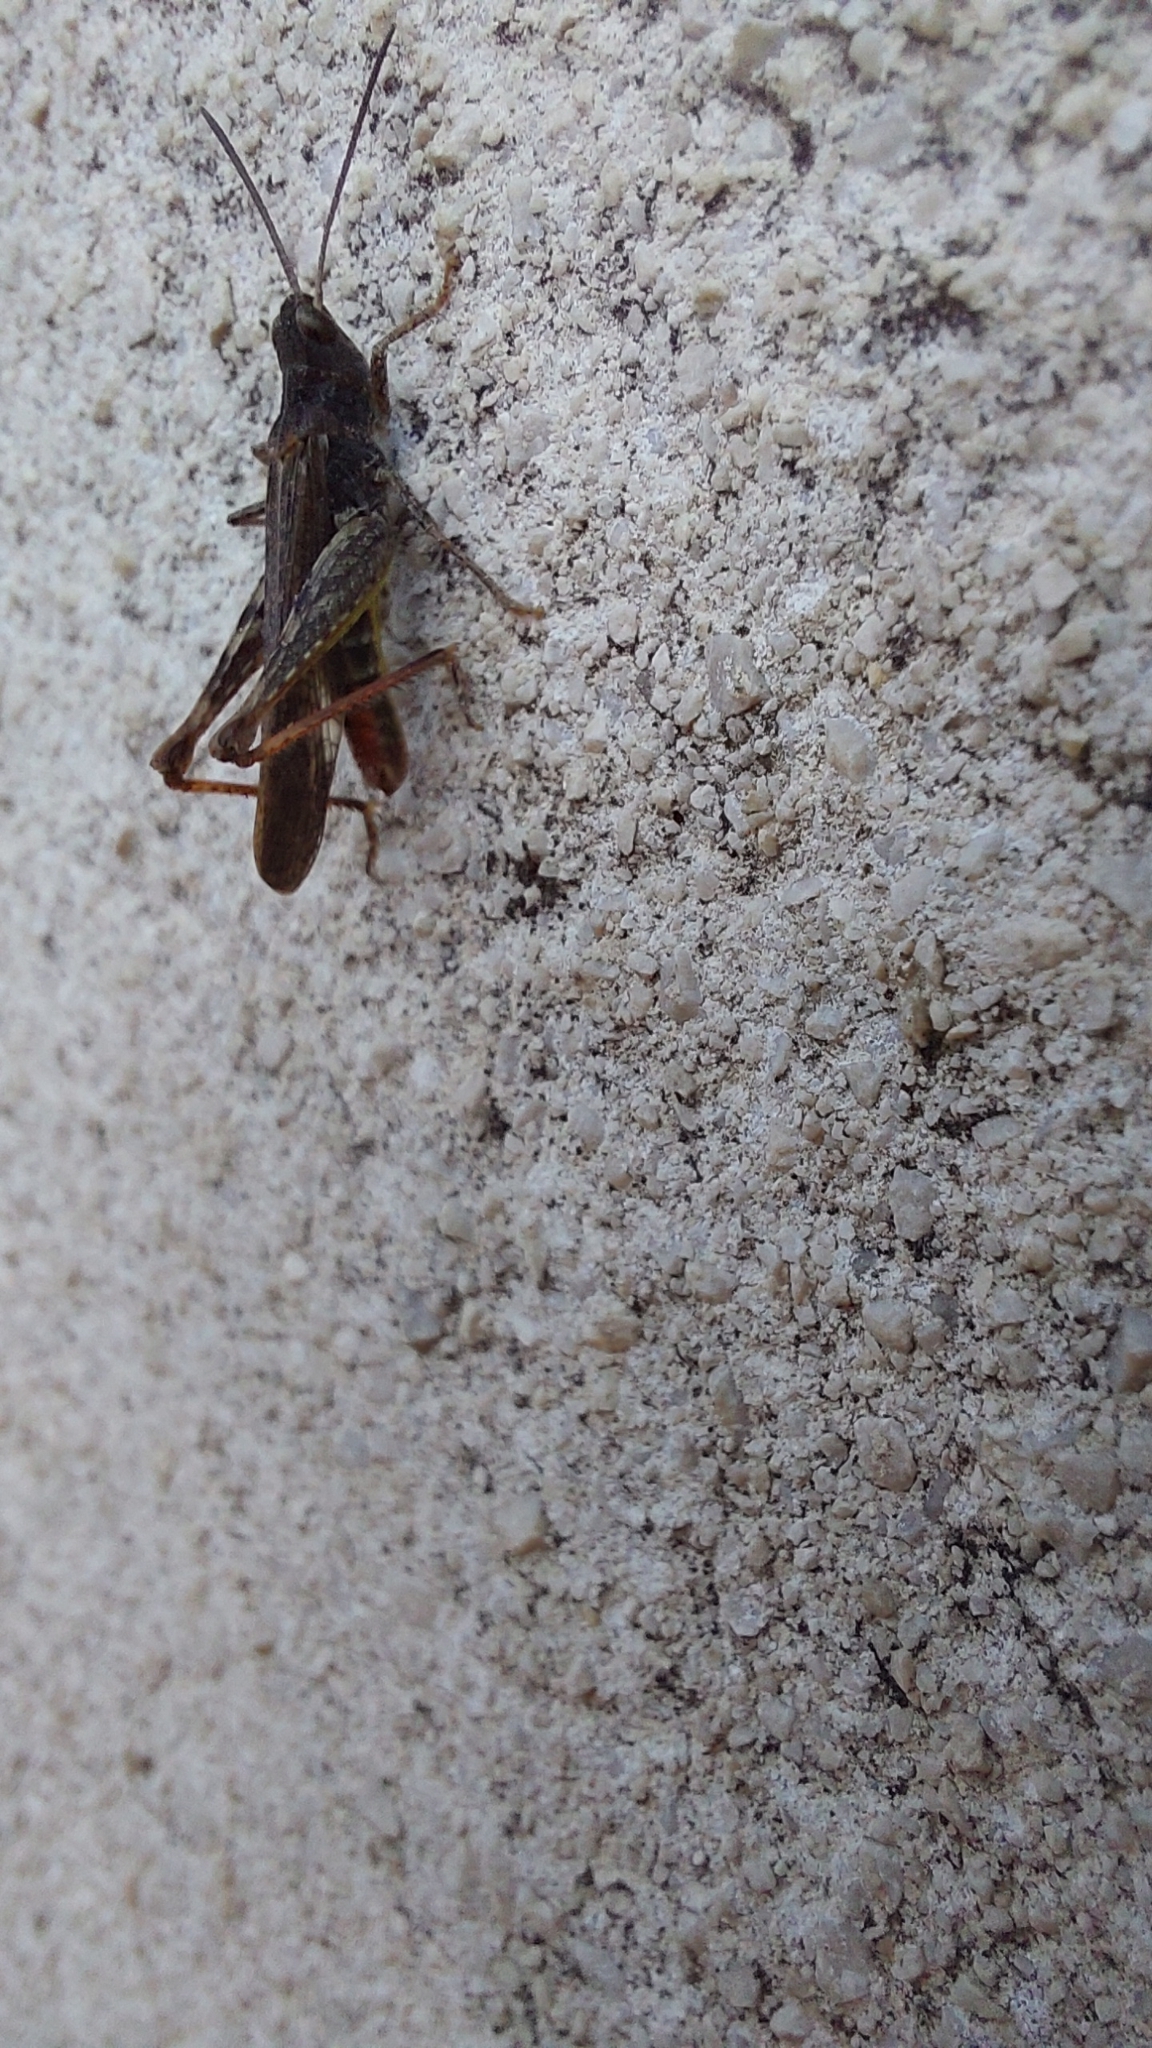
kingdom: Animalia
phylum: Arthropoda
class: Insecta
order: Orthoptera
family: Acrididae
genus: Chorthippus
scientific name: Chorthippus brunneus
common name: Field grasshopper
